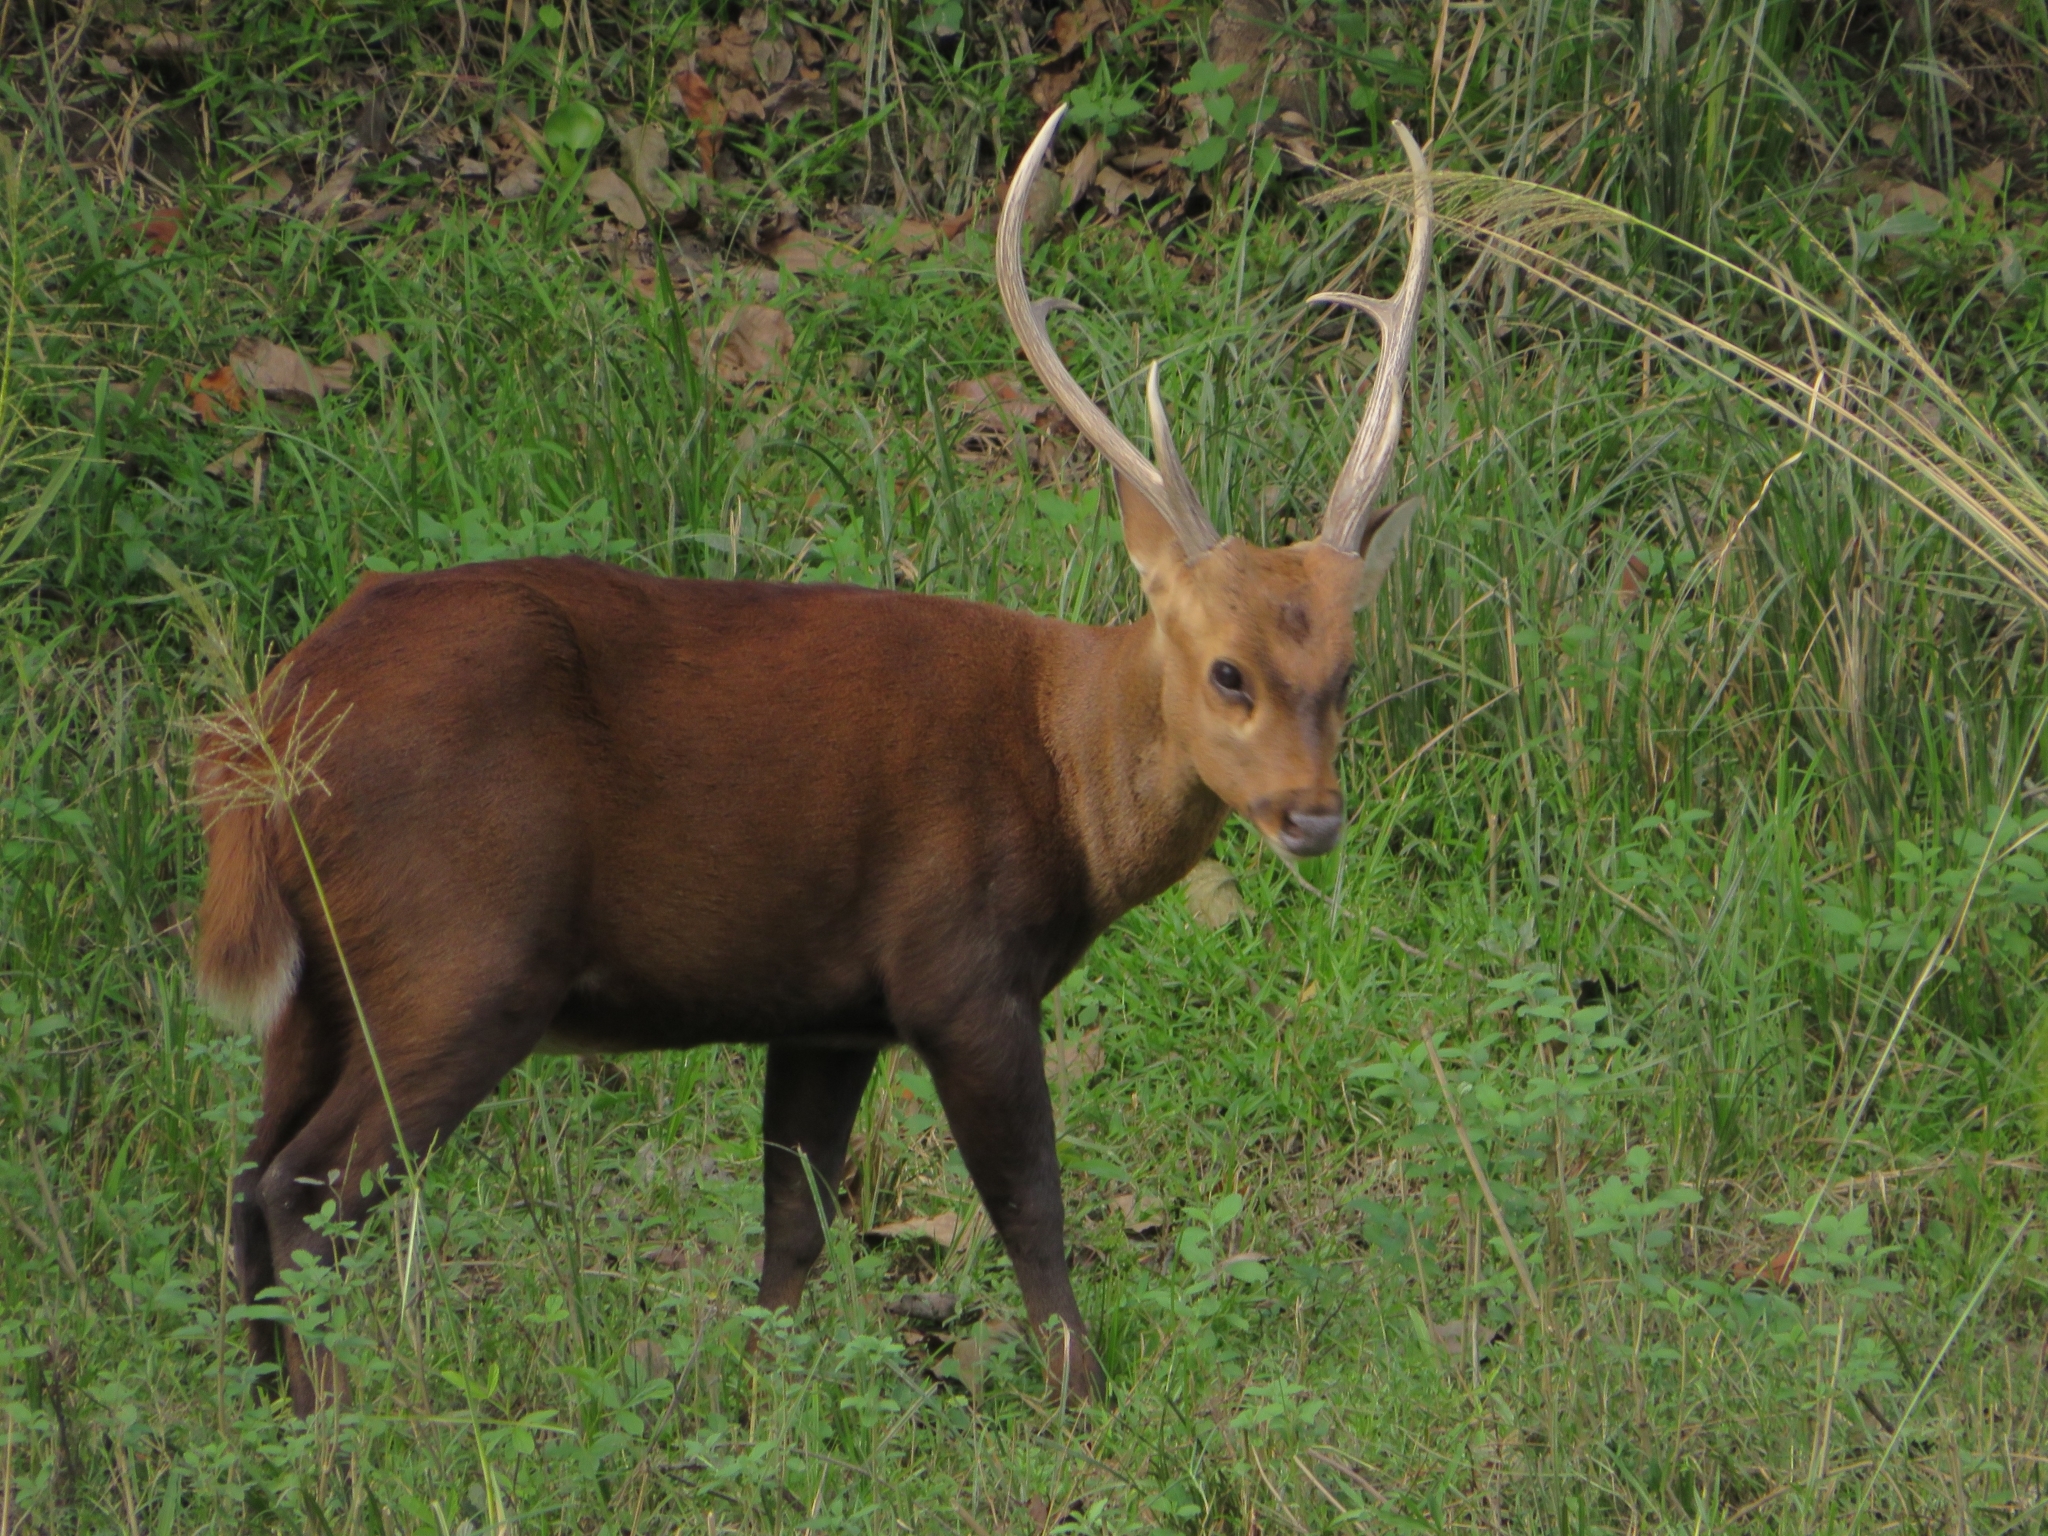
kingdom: Animalia
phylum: Chordata
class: Mammalia
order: Artiodactyla
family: Cervidae
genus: Axis
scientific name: Axis porcinus
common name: Hog deer
